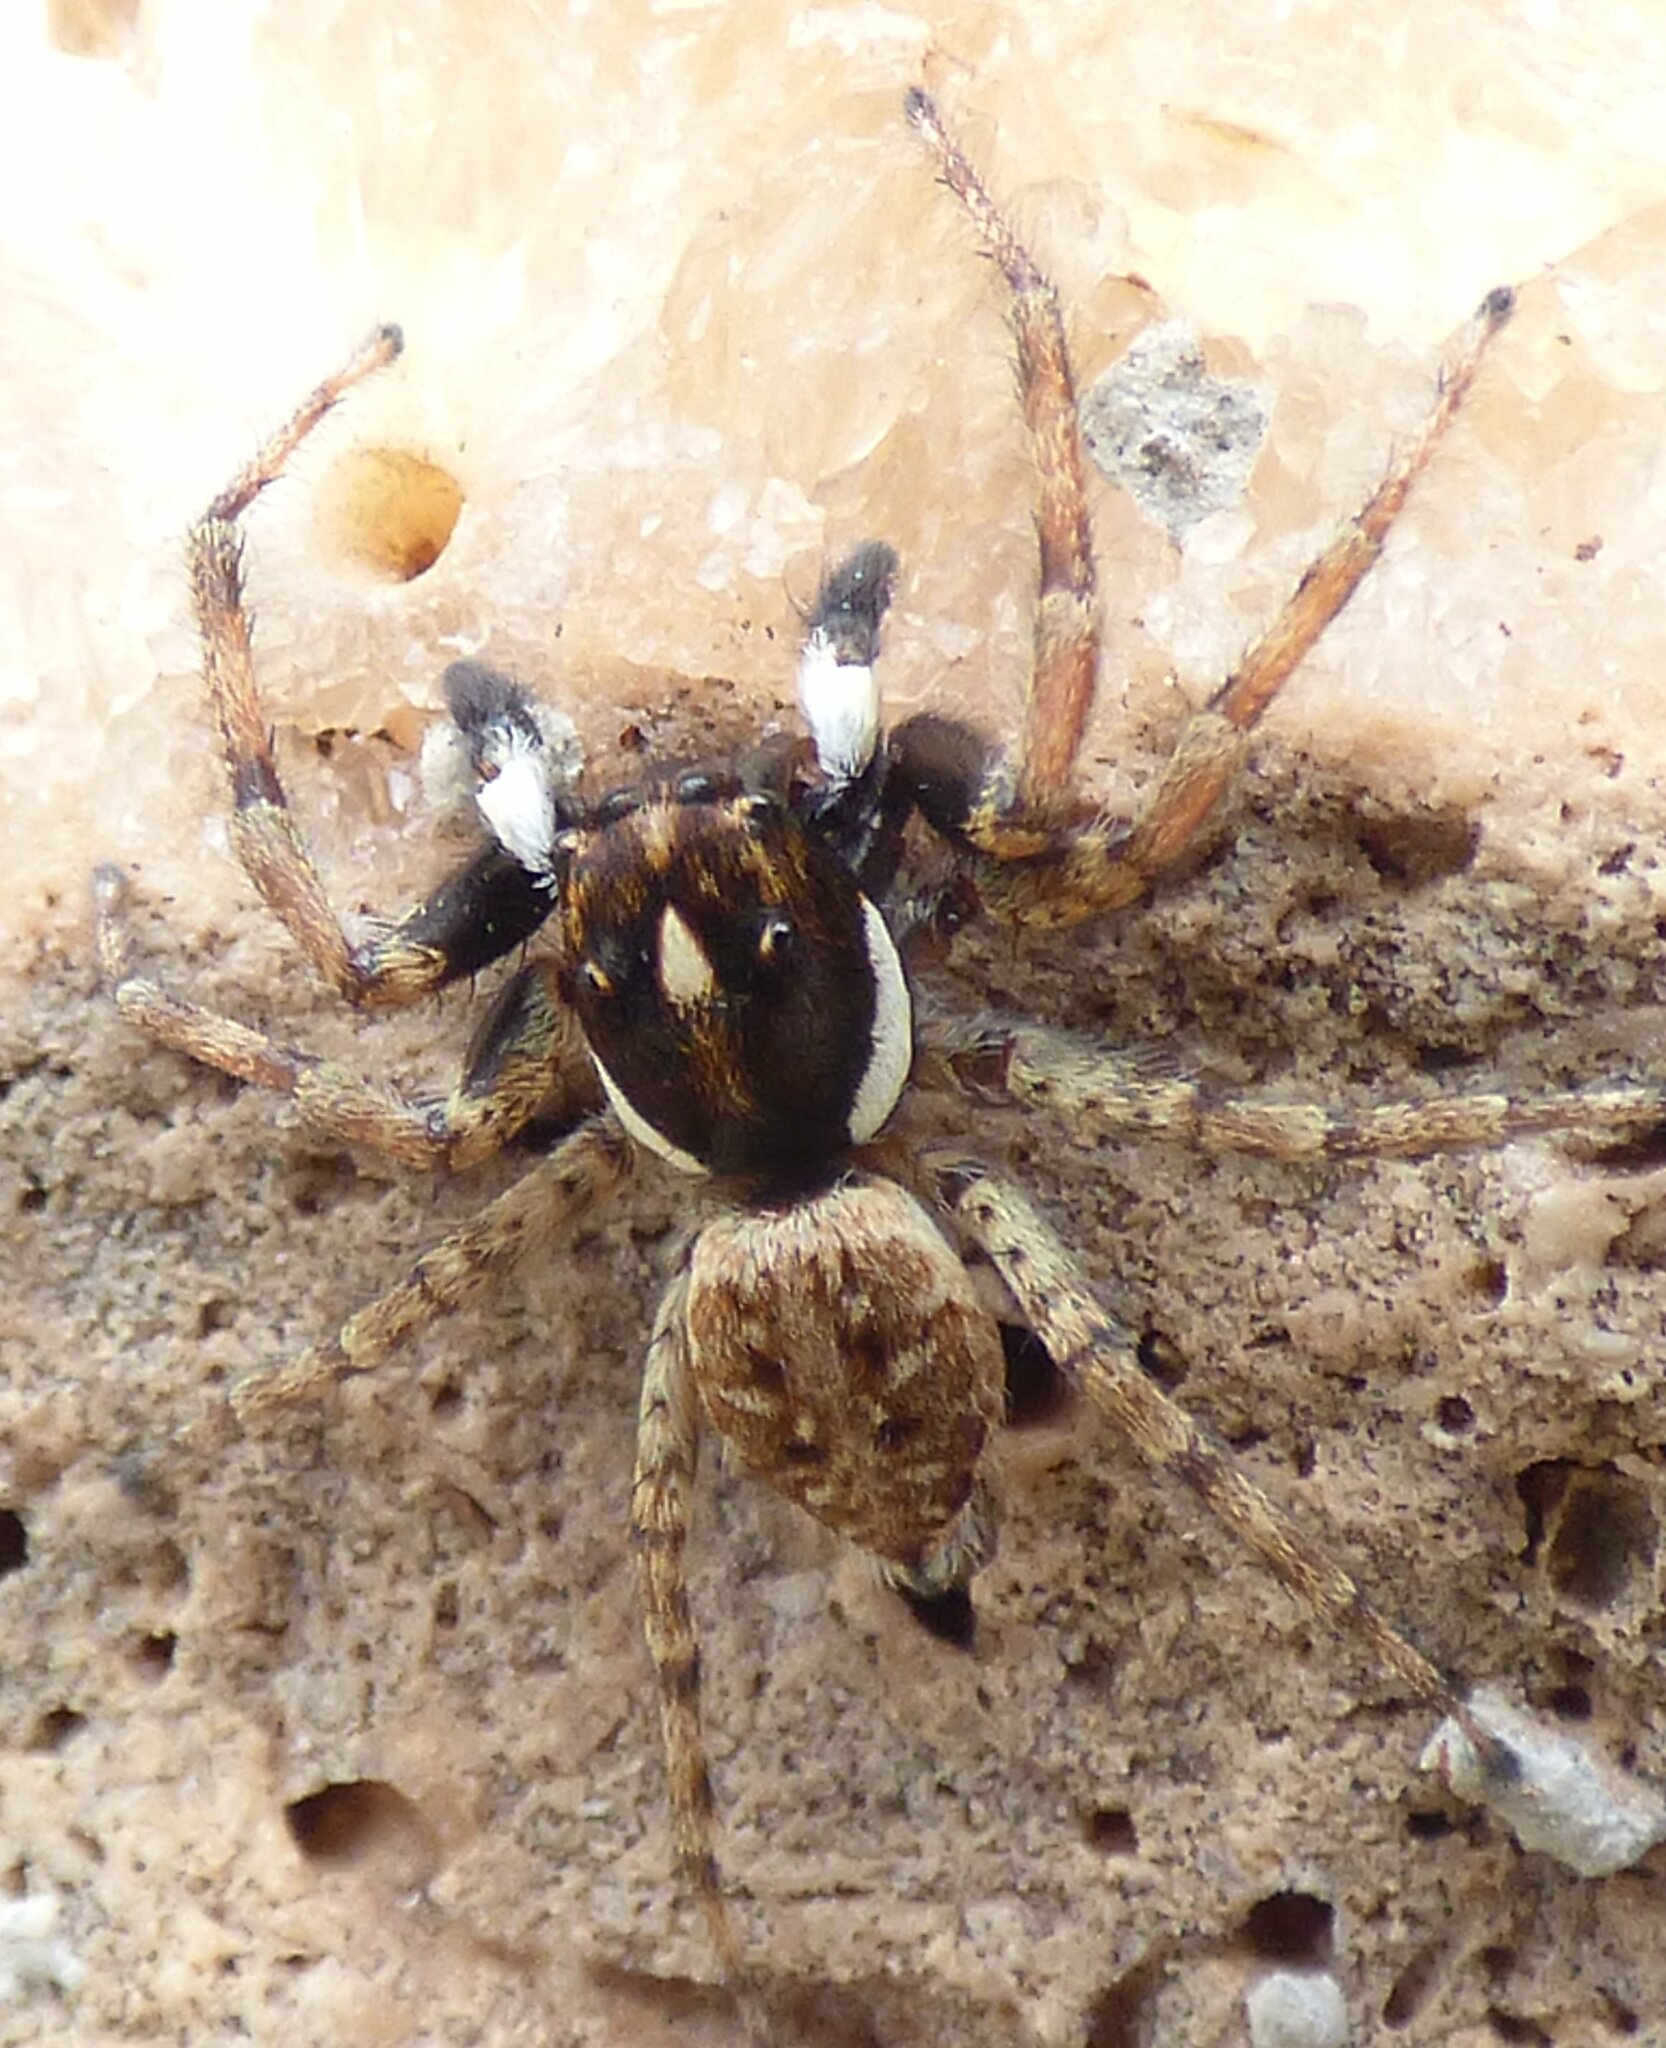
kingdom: Animalia
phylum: Arthropoda
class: Arachnida
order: Araneae
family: Salticidae
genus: Menemerus
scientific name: Menemerus semilimbatus
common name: Jumping spider
